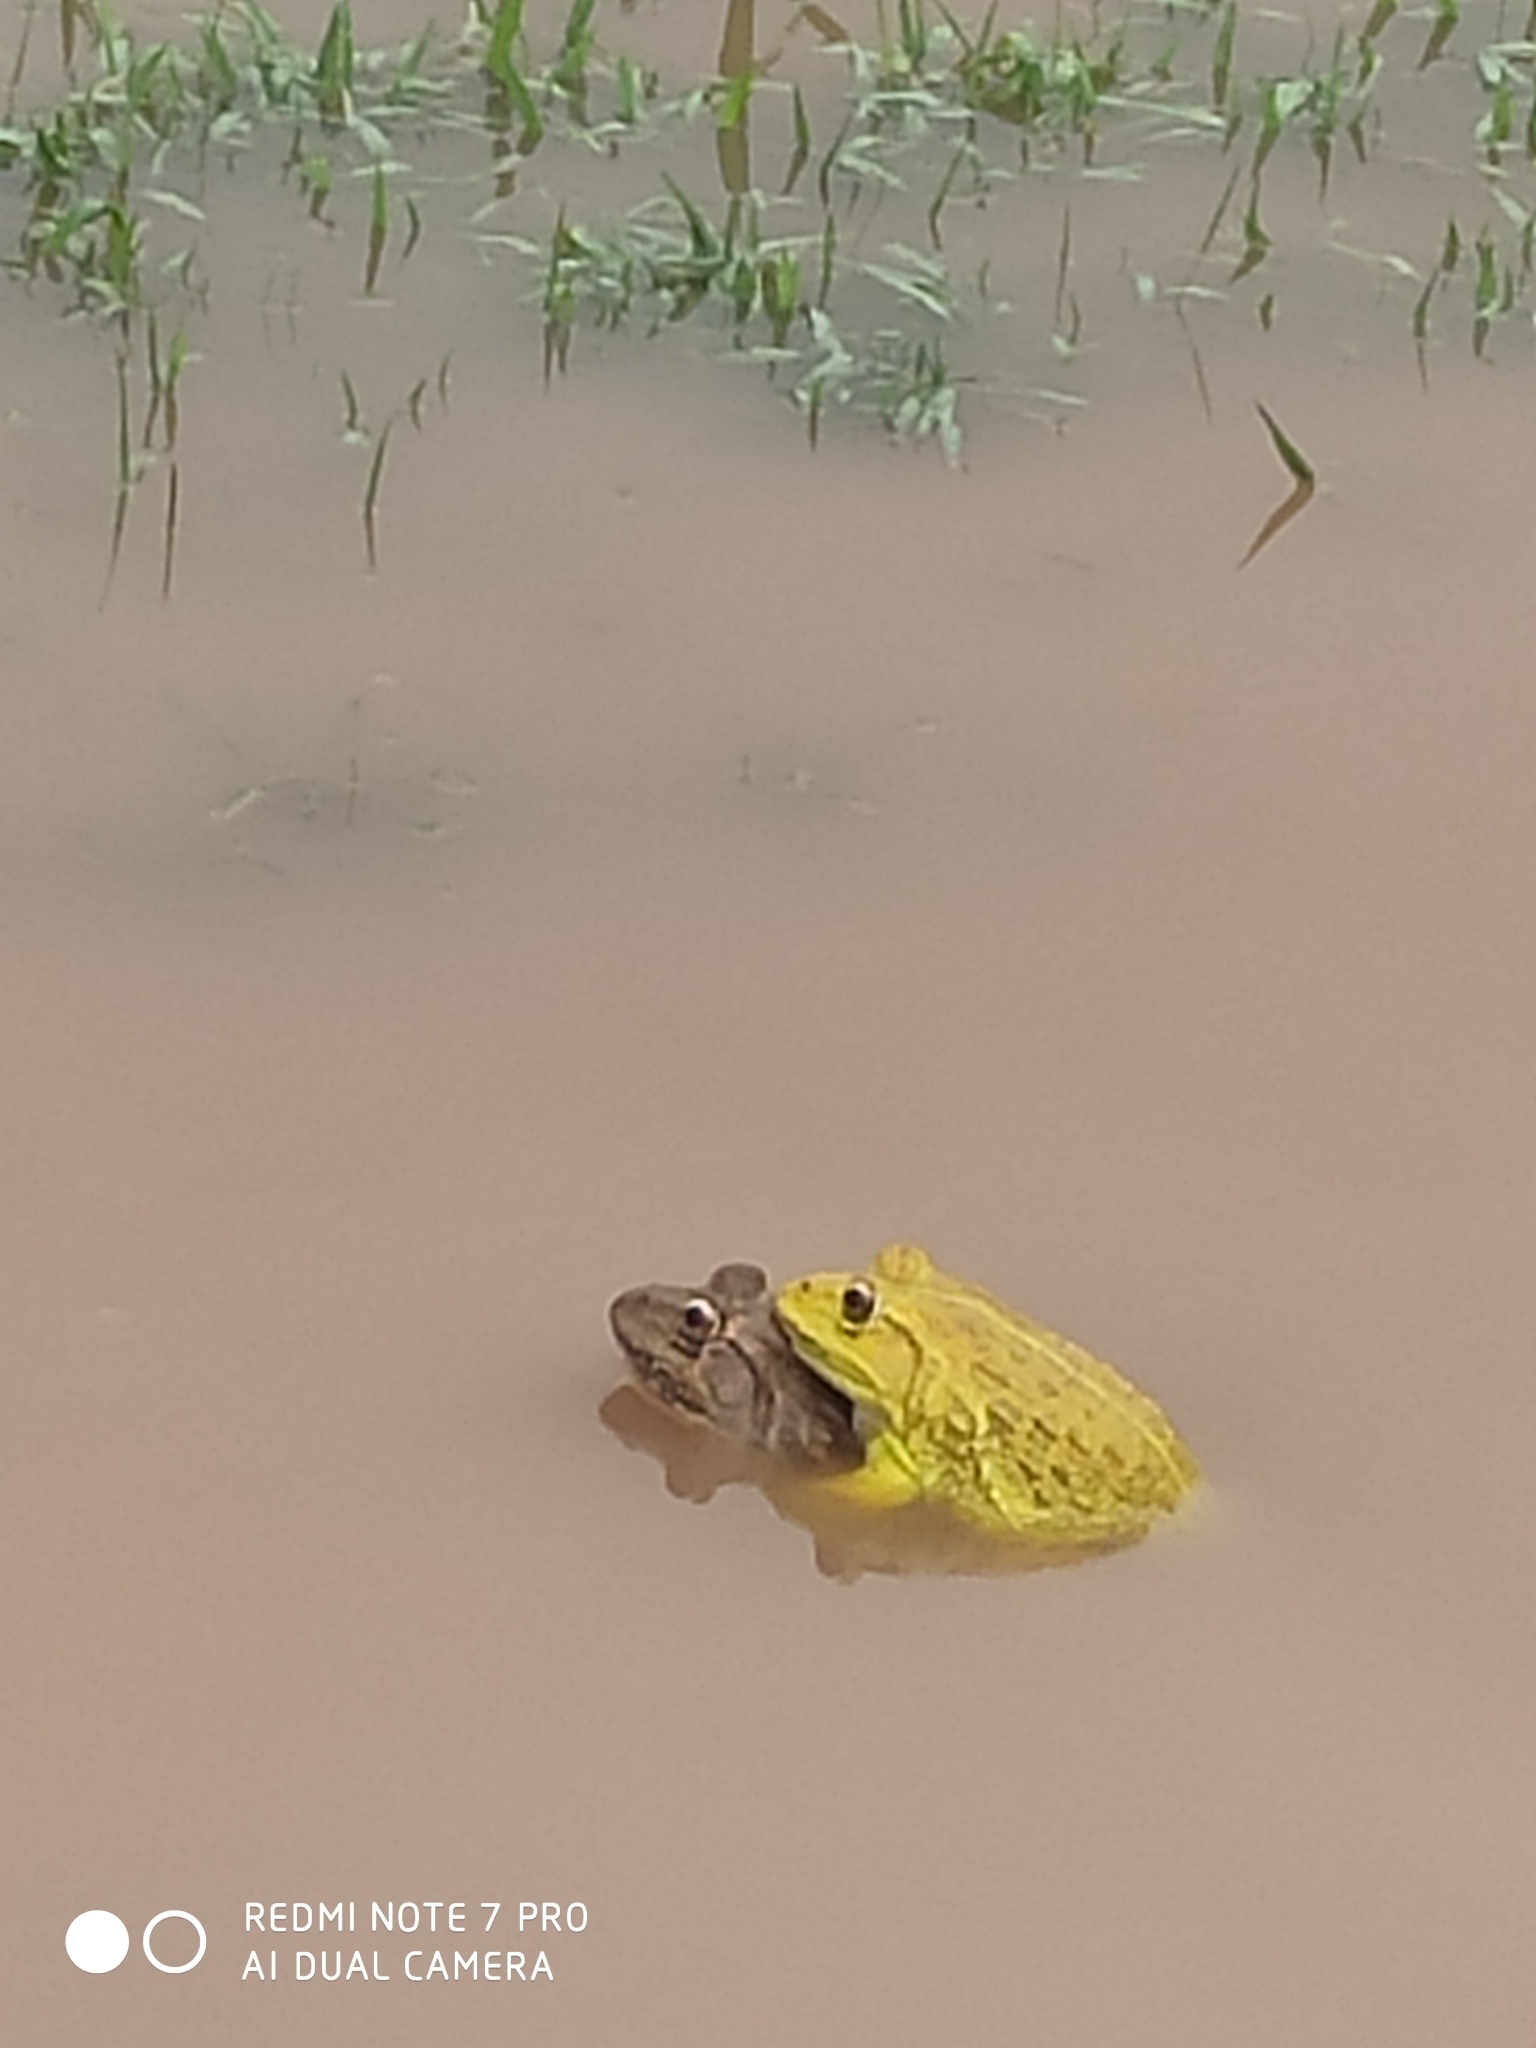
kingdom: Animalia
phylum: Chordata
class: Amphibia
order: Anura
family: Dicroglossidae
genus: Hoplobatrachus
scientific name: Hoplobatrachus tigerinus
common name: Indian bullfrog
